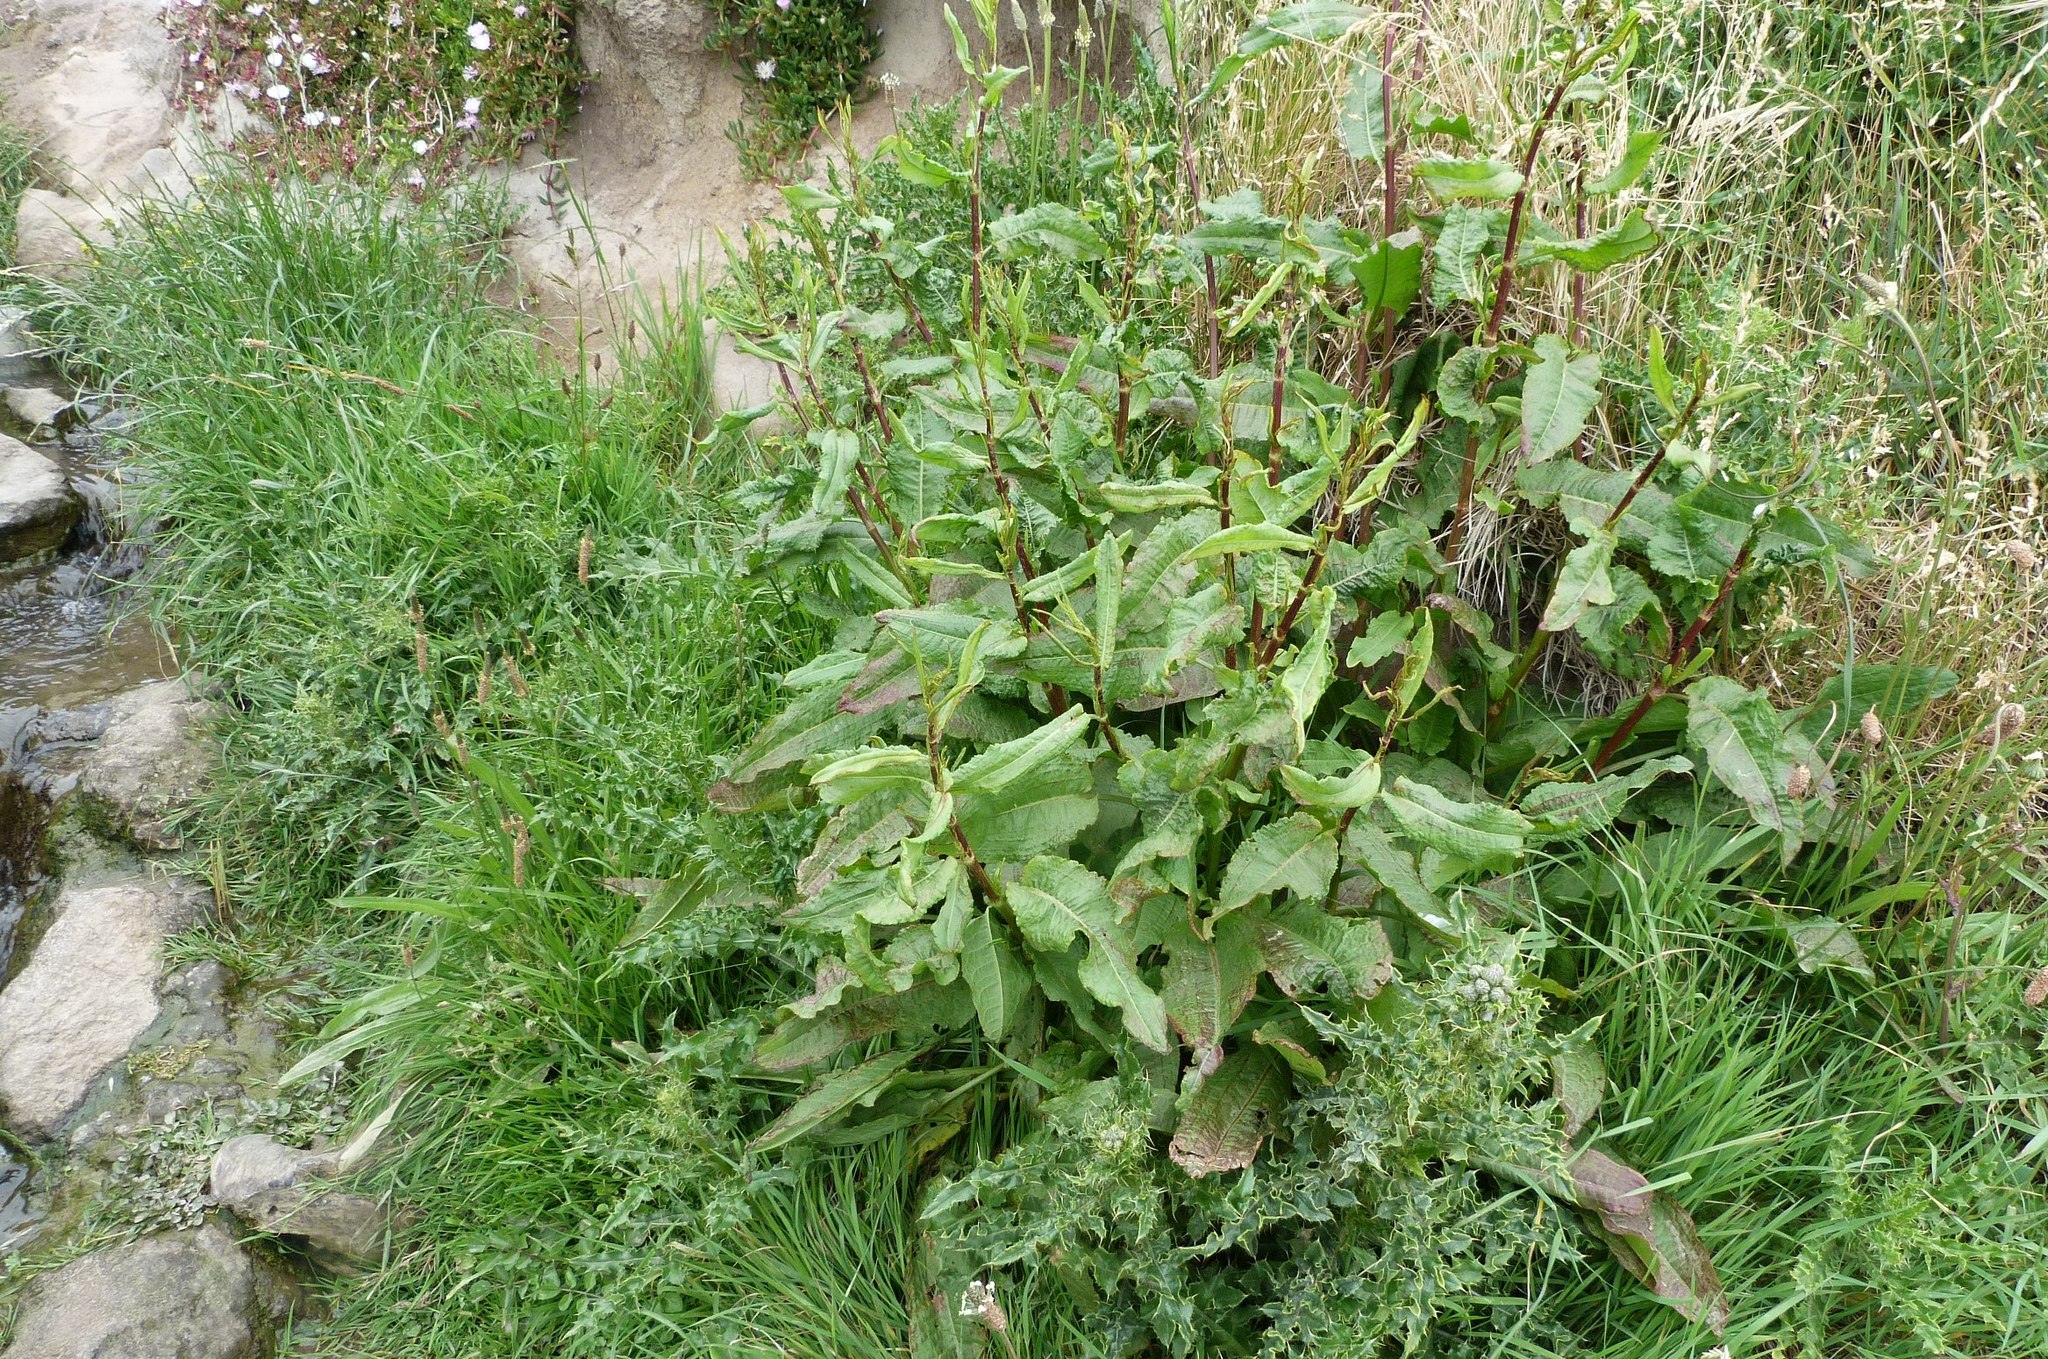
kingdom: Plantae
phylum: Tracheophyta
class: Magnoliopsida
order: Caryophyllales
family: Polygonaceae
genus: Rumex
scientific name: Rumex obtusifolius
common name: Bitter dock
